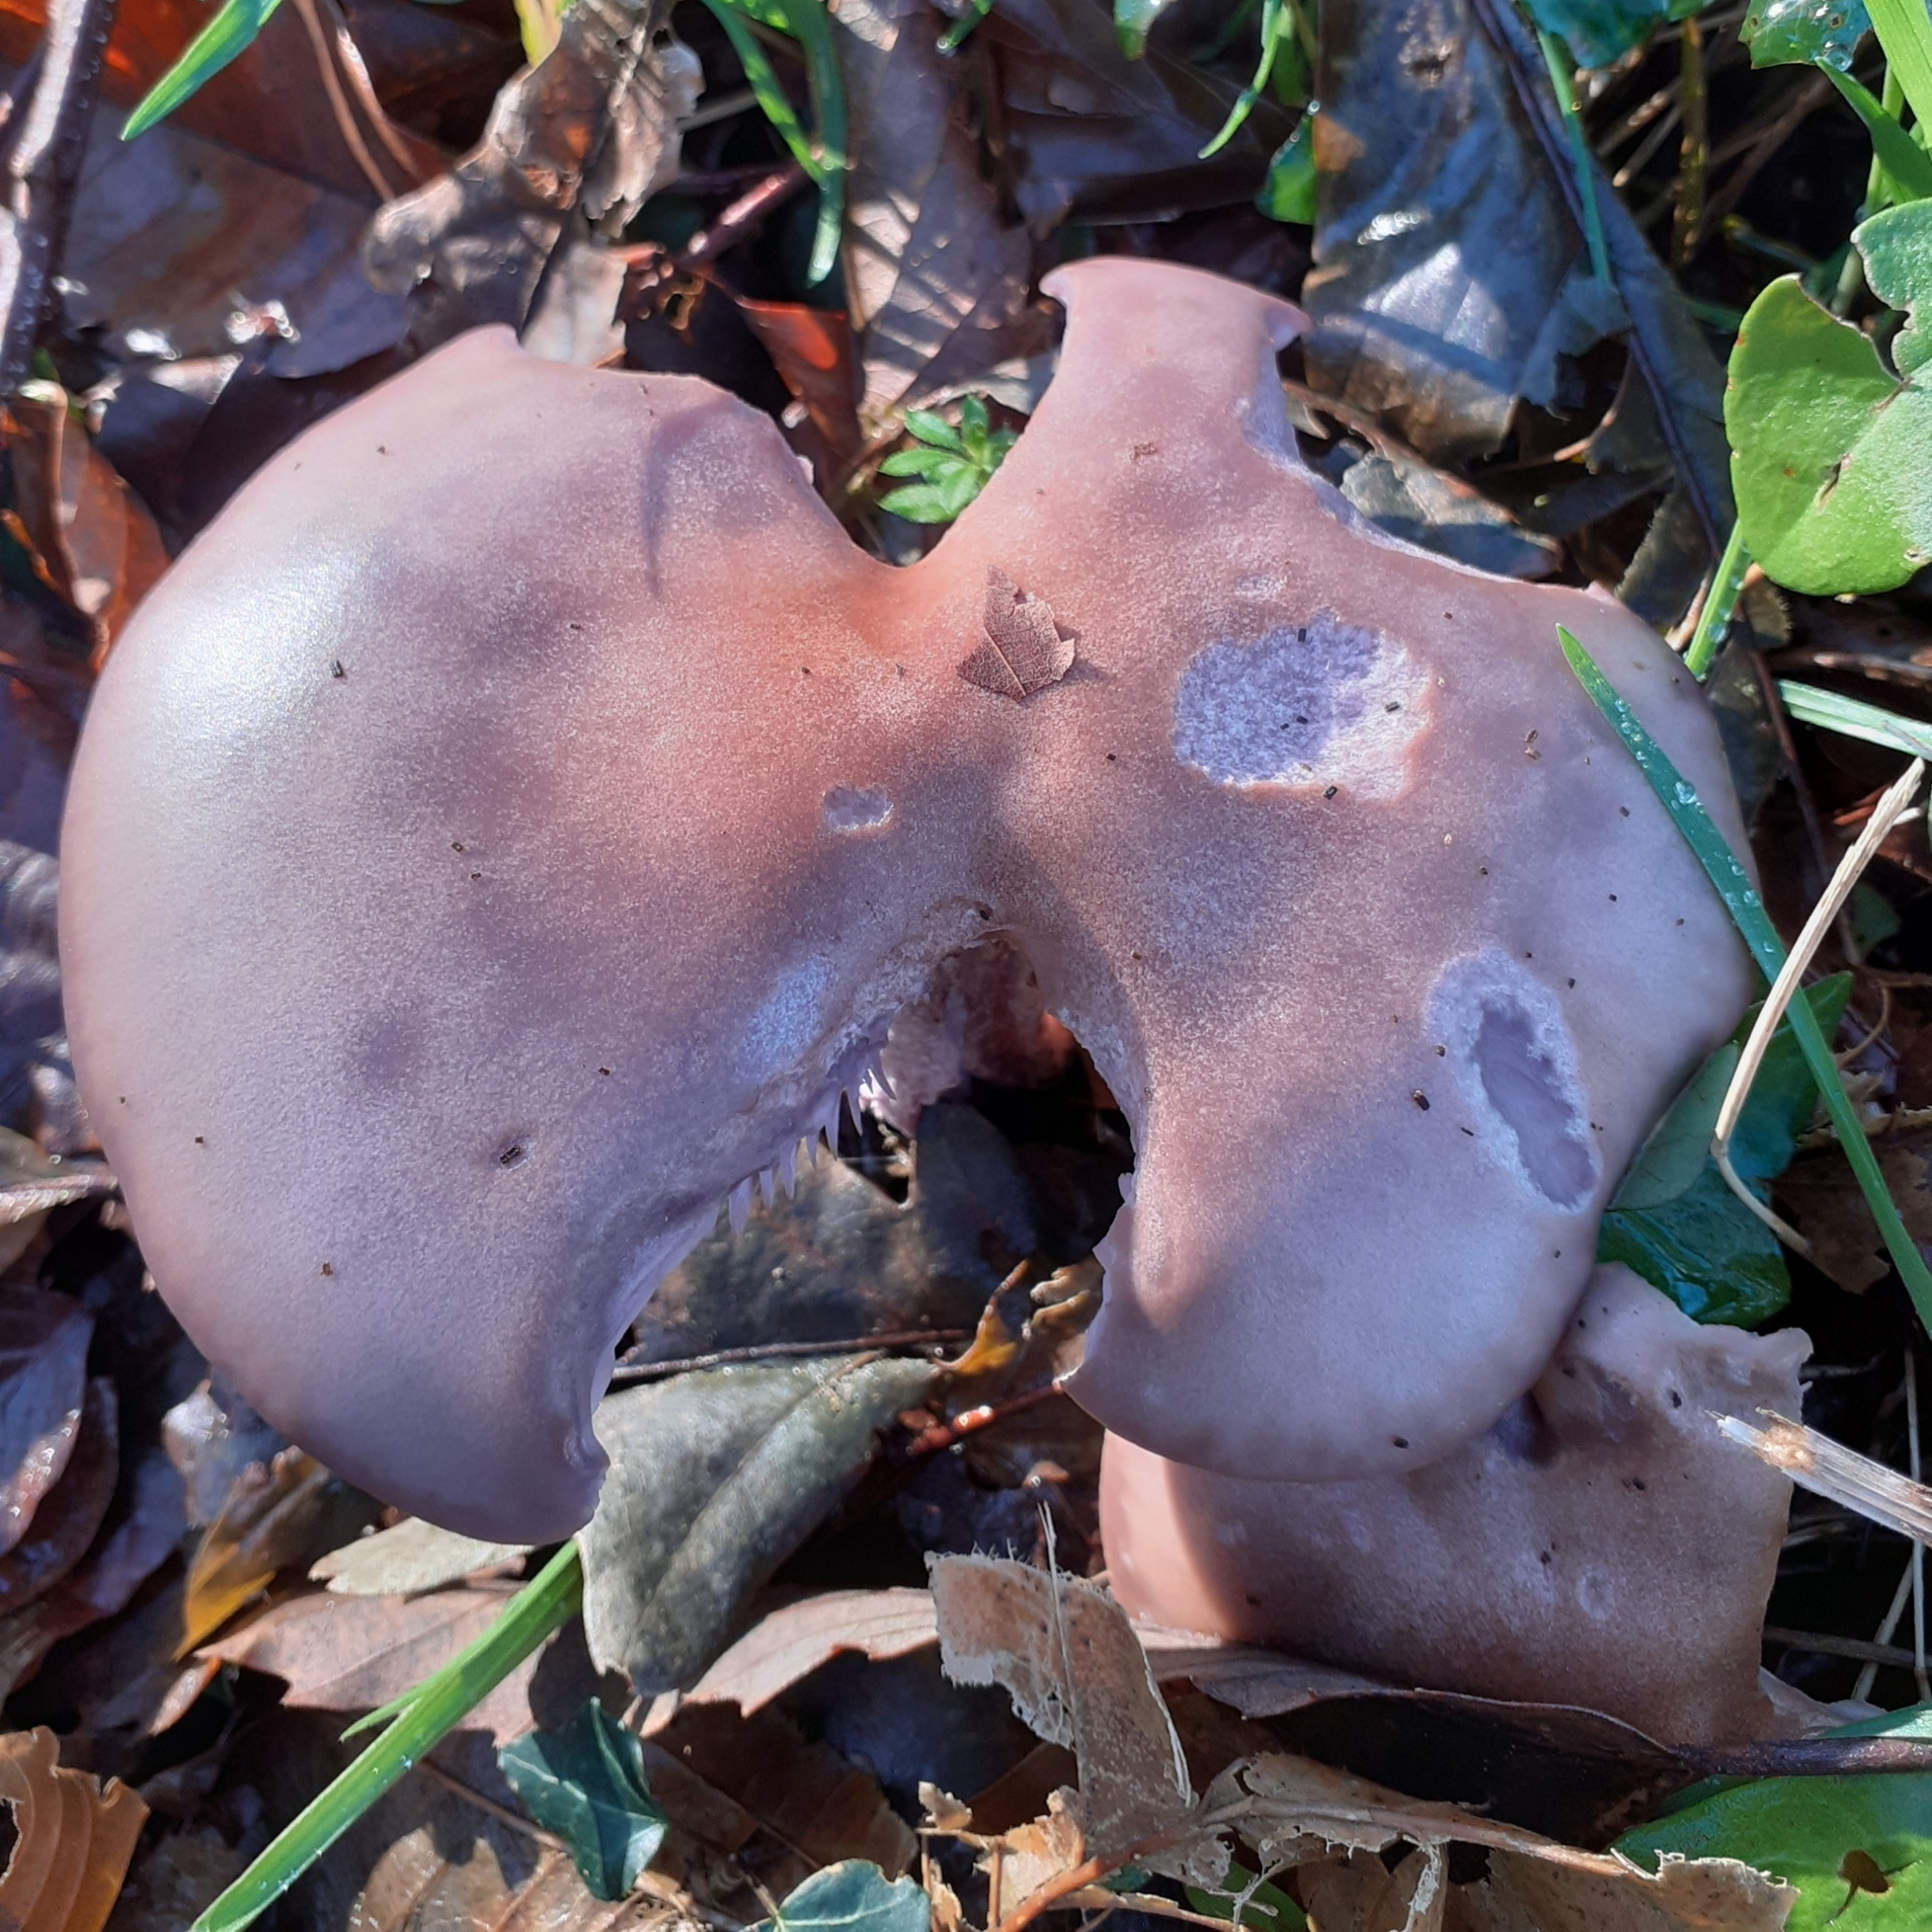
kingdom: Fungi
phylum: Basidiomycota
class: Agaricomycetes
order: Agaricales
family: Tricholomataceae
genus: Collybia
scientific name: Collybia
